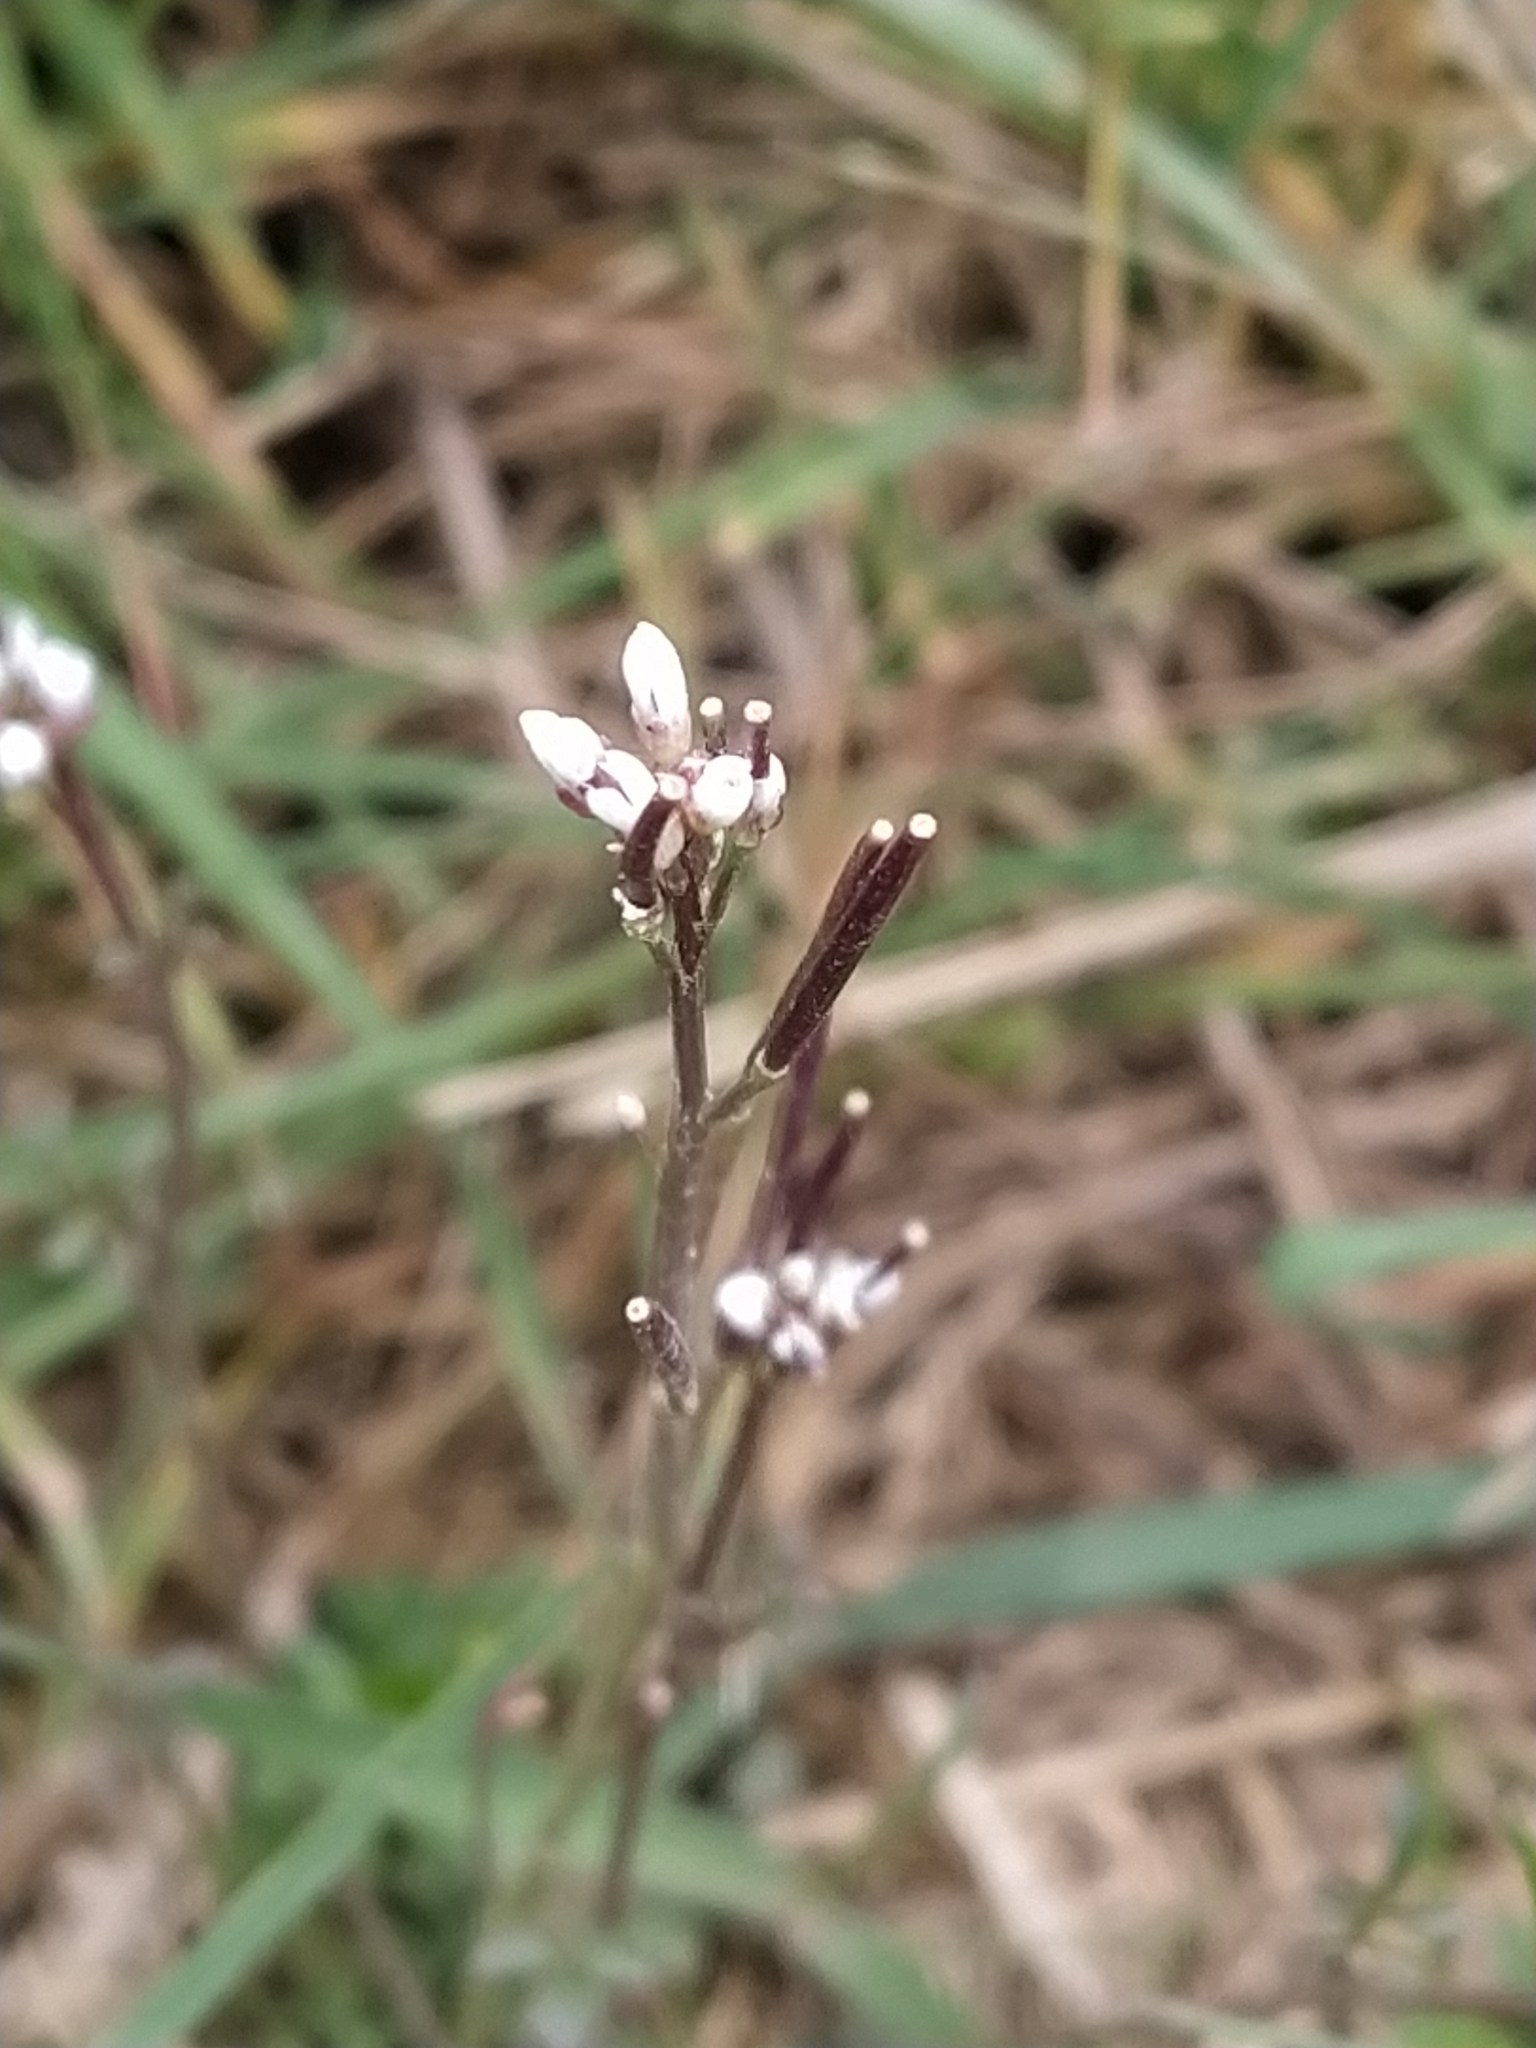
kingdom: Plantae
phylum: Tracheophyta
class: Magnoliopsida
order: Brassicales
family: Brassicaceae
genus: Cardamine
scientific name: Cardamine hirsuta
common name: Hairy bittercress
